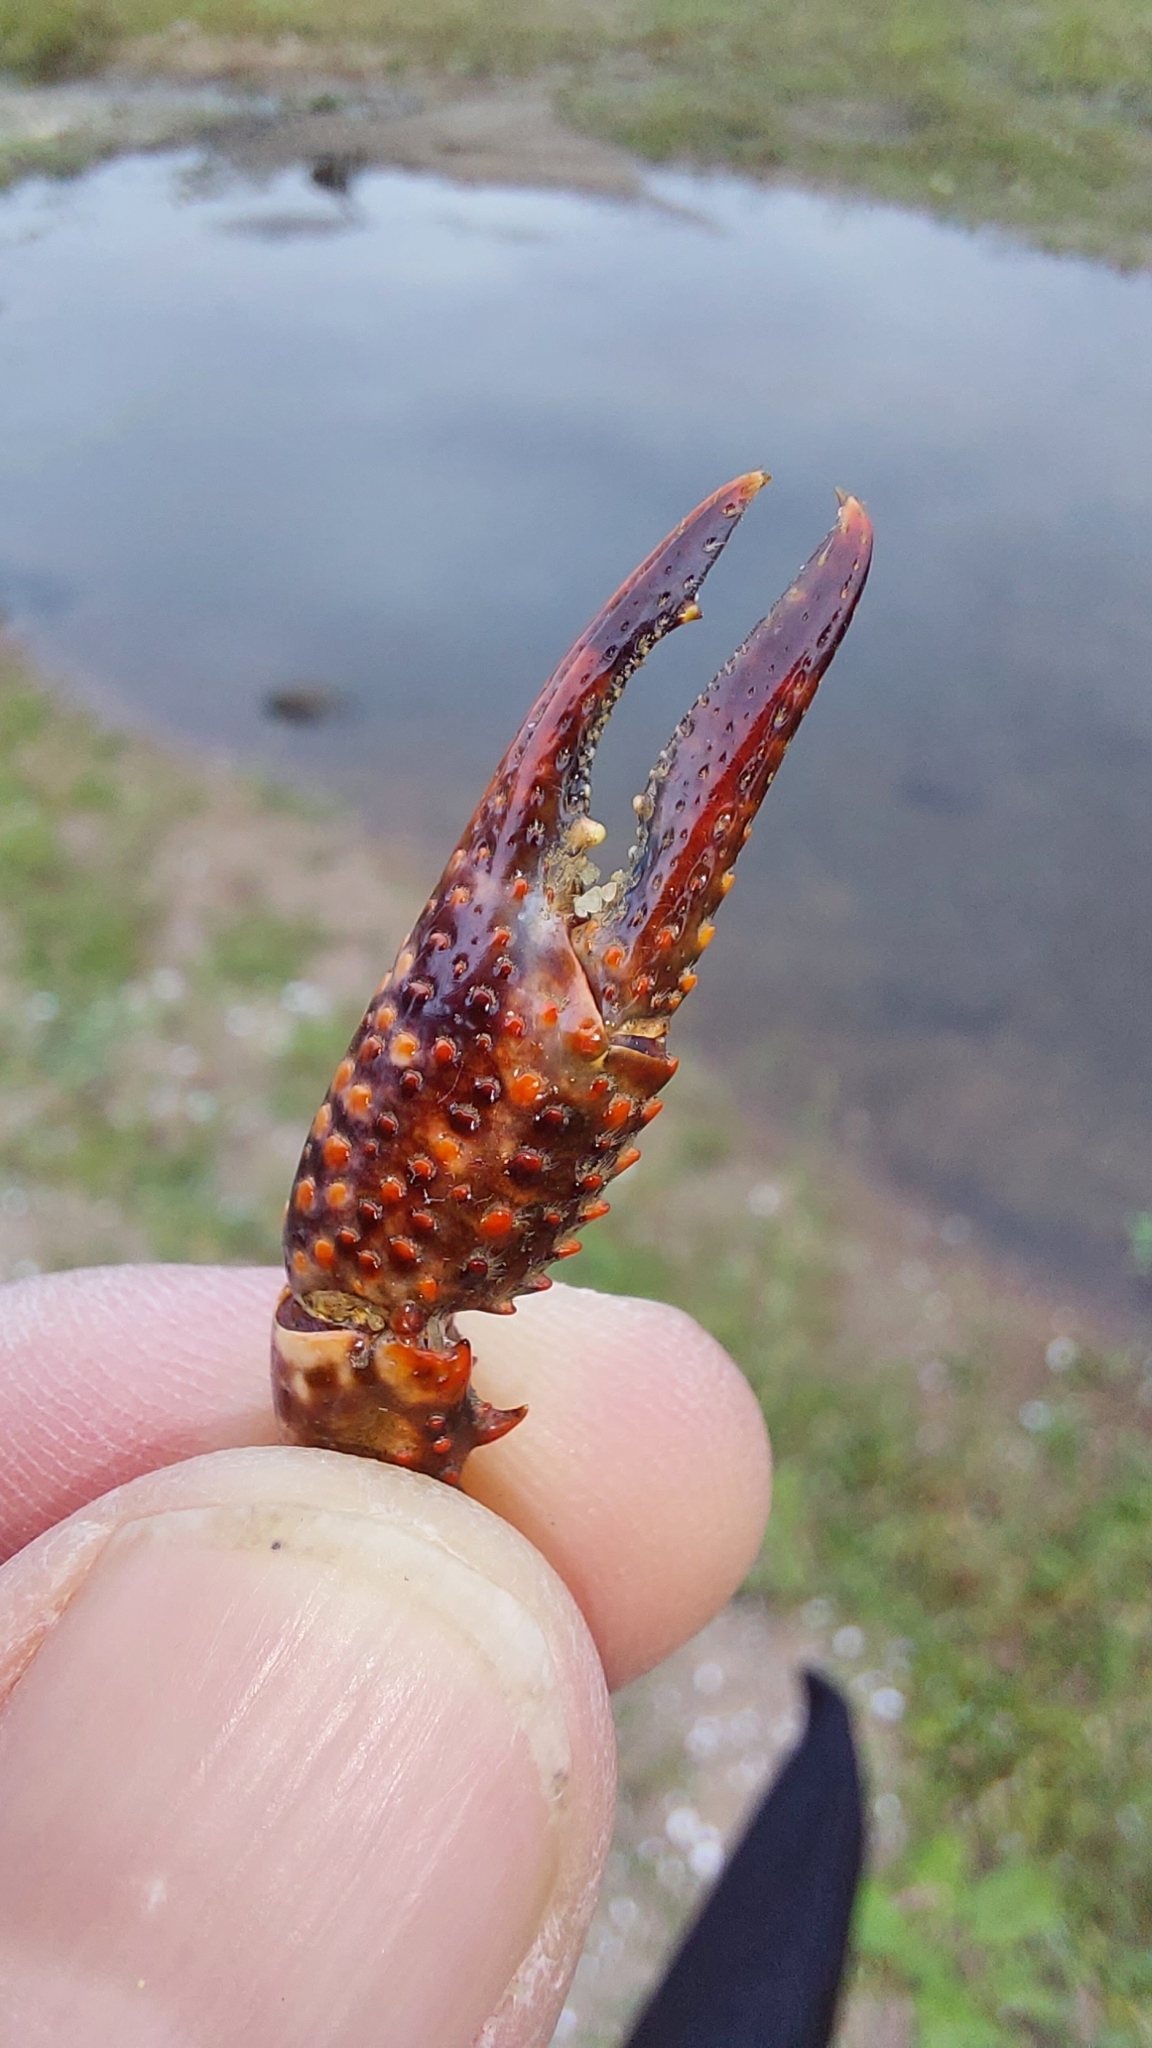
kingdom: Animalia
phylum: Arthropoda
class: Malacostraca
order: Decapoda
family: Cambaridae
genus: Procambarus
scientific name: Procambarus clarkii
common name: Red swamp crayfish
